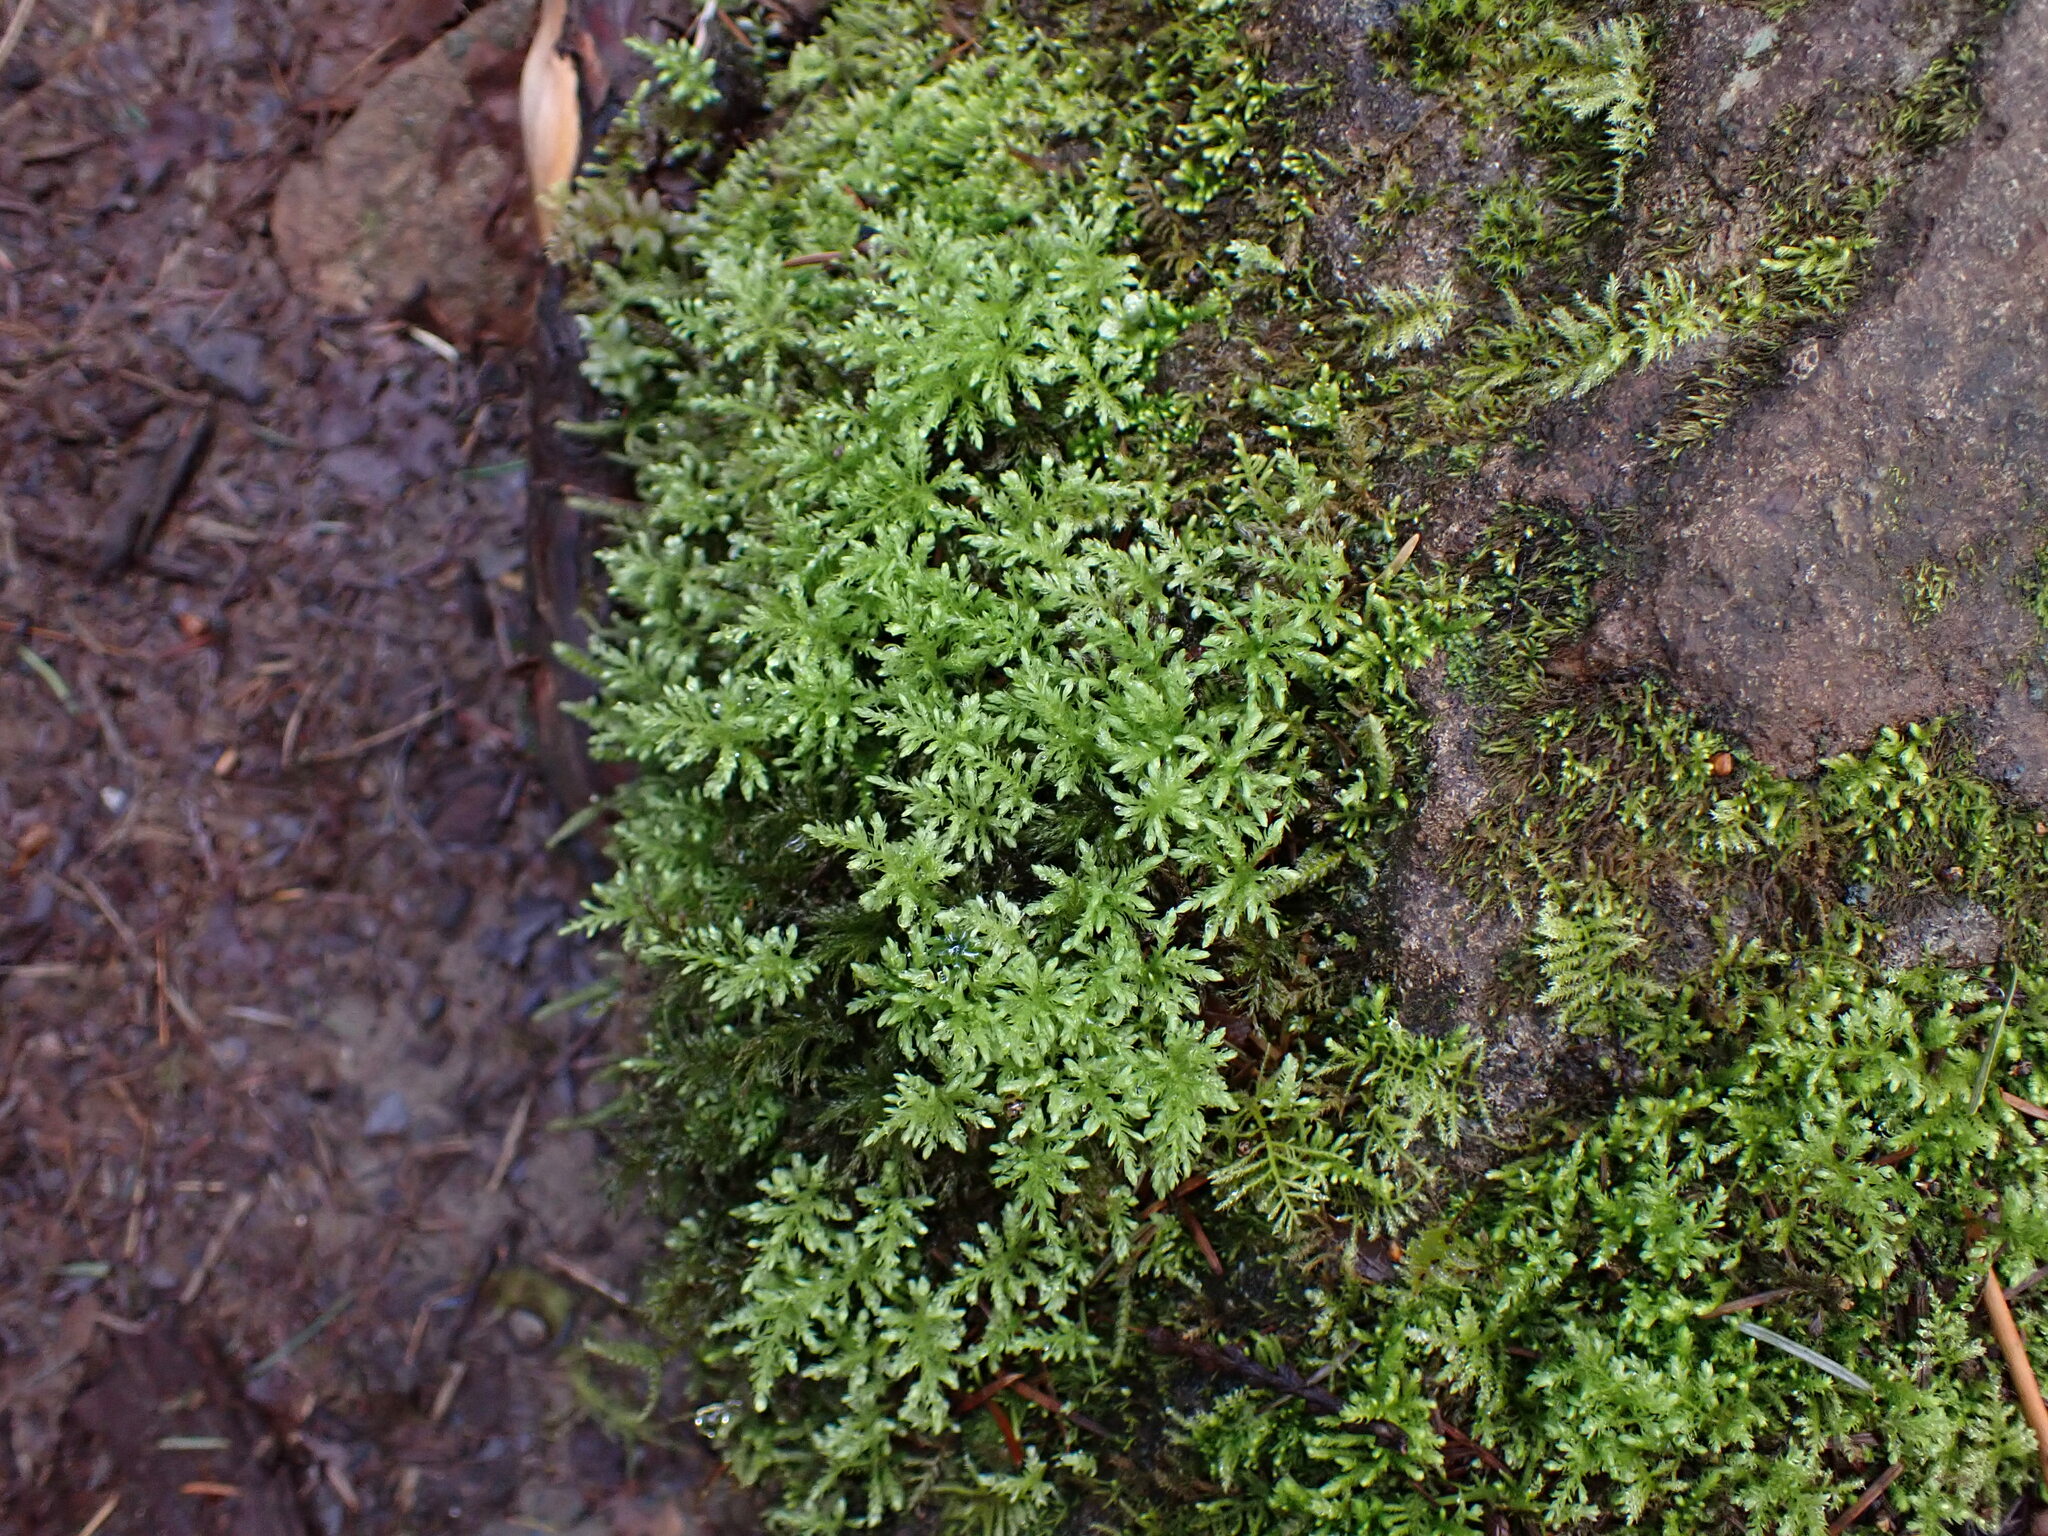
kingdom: Plantae
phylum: Bryophyta
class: Bryopsida
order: Bryales
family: Mniaceae
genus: Leucolepis
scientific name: Leucolepis acanthoneura
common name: Leucolepis umbrella moss
